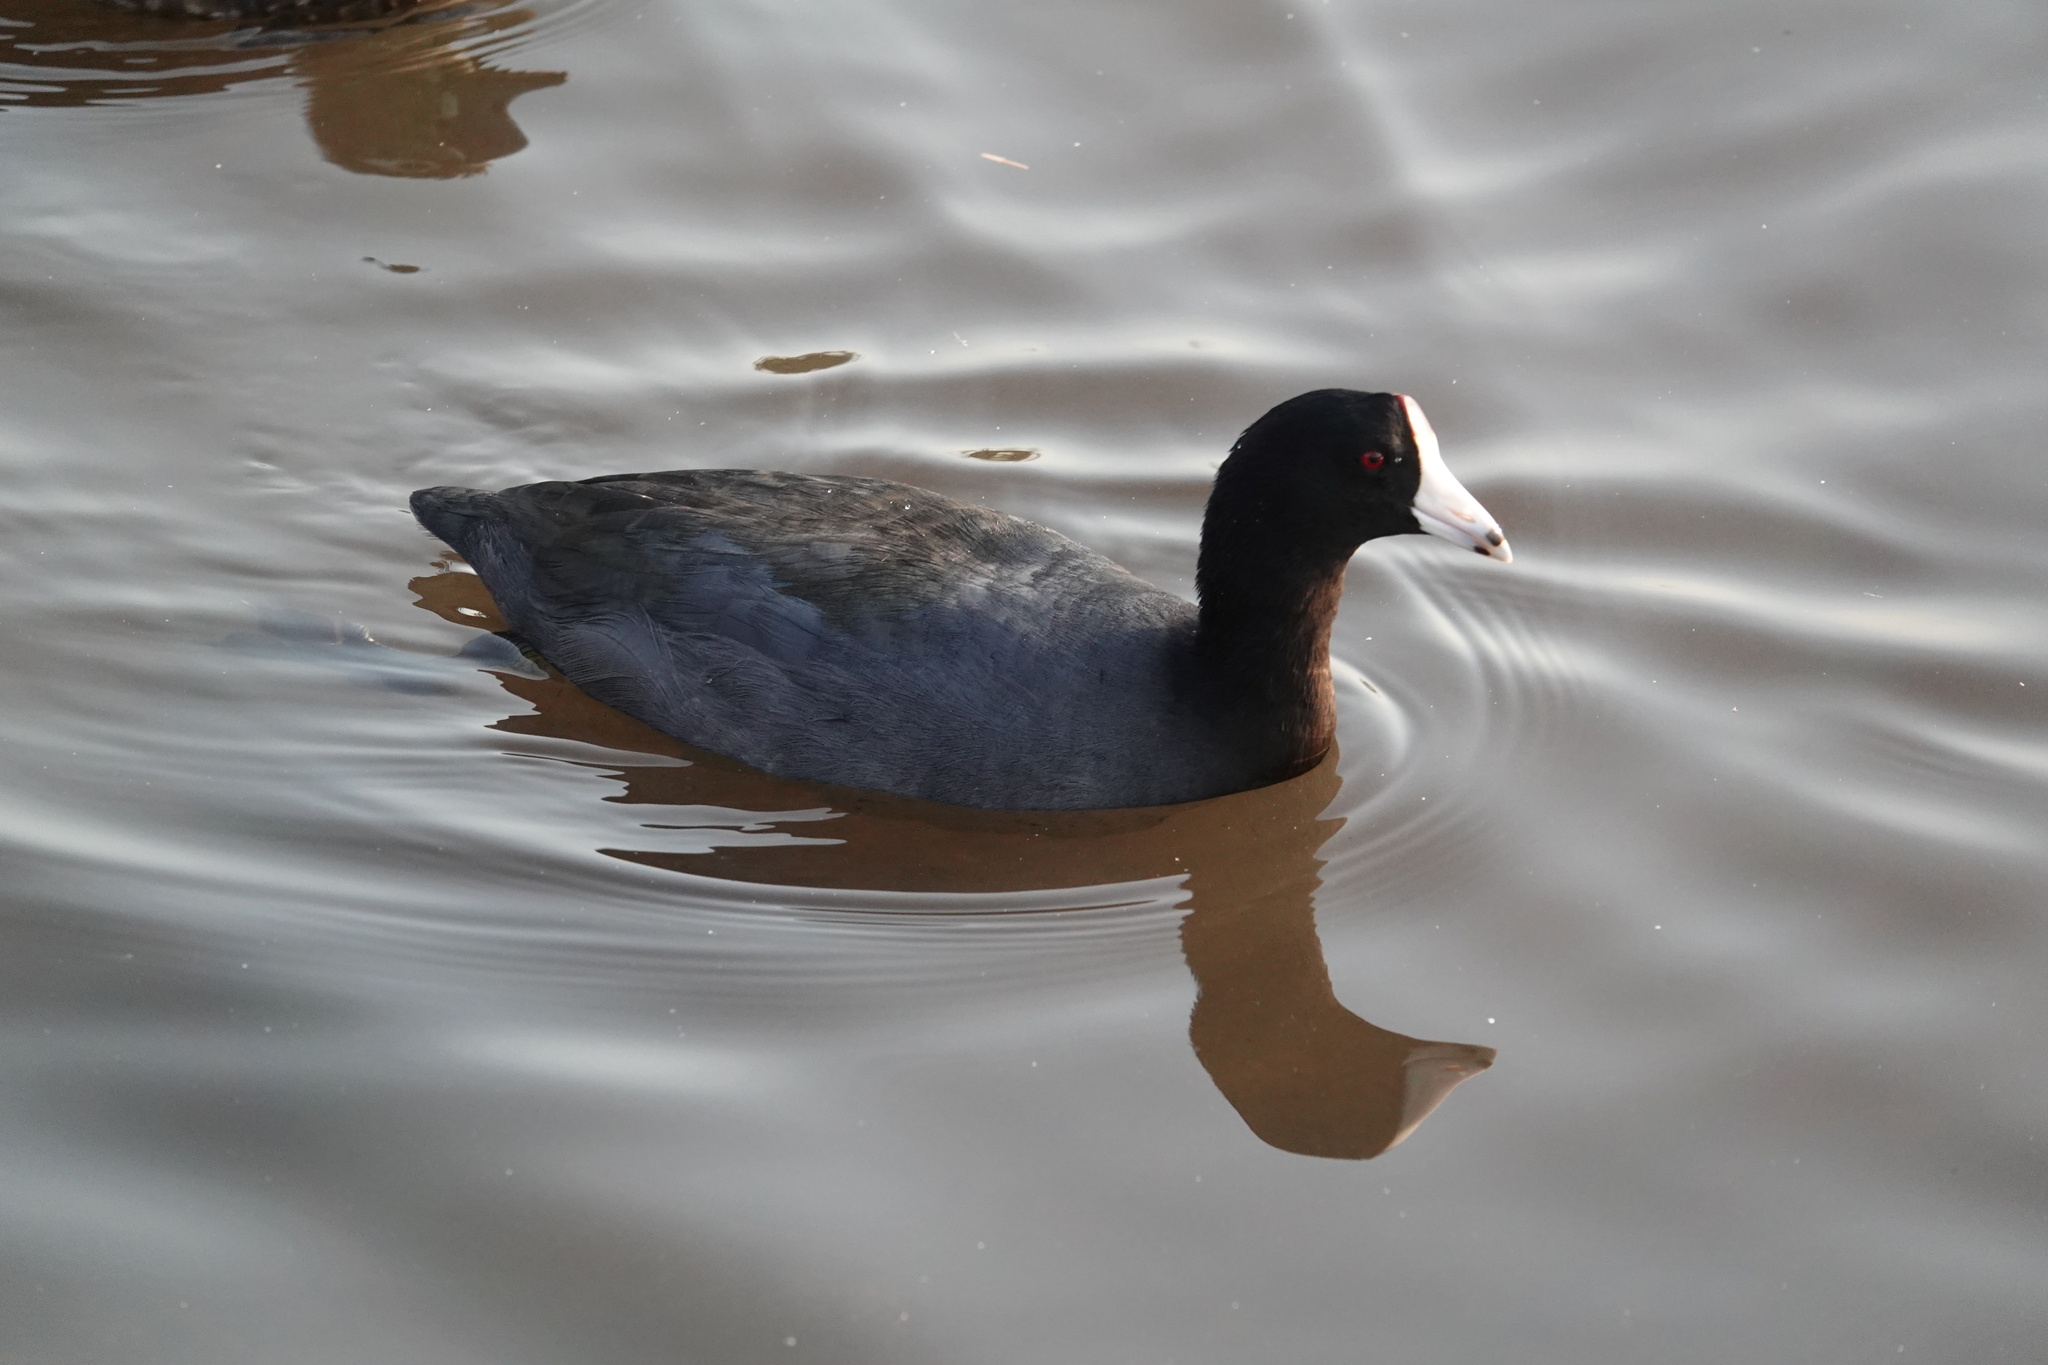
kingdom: Animalia
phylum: Chordata
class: Aves
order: Gruiformes
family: Rallidae
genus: Fulica
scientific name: Fulica americana
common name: American coot
